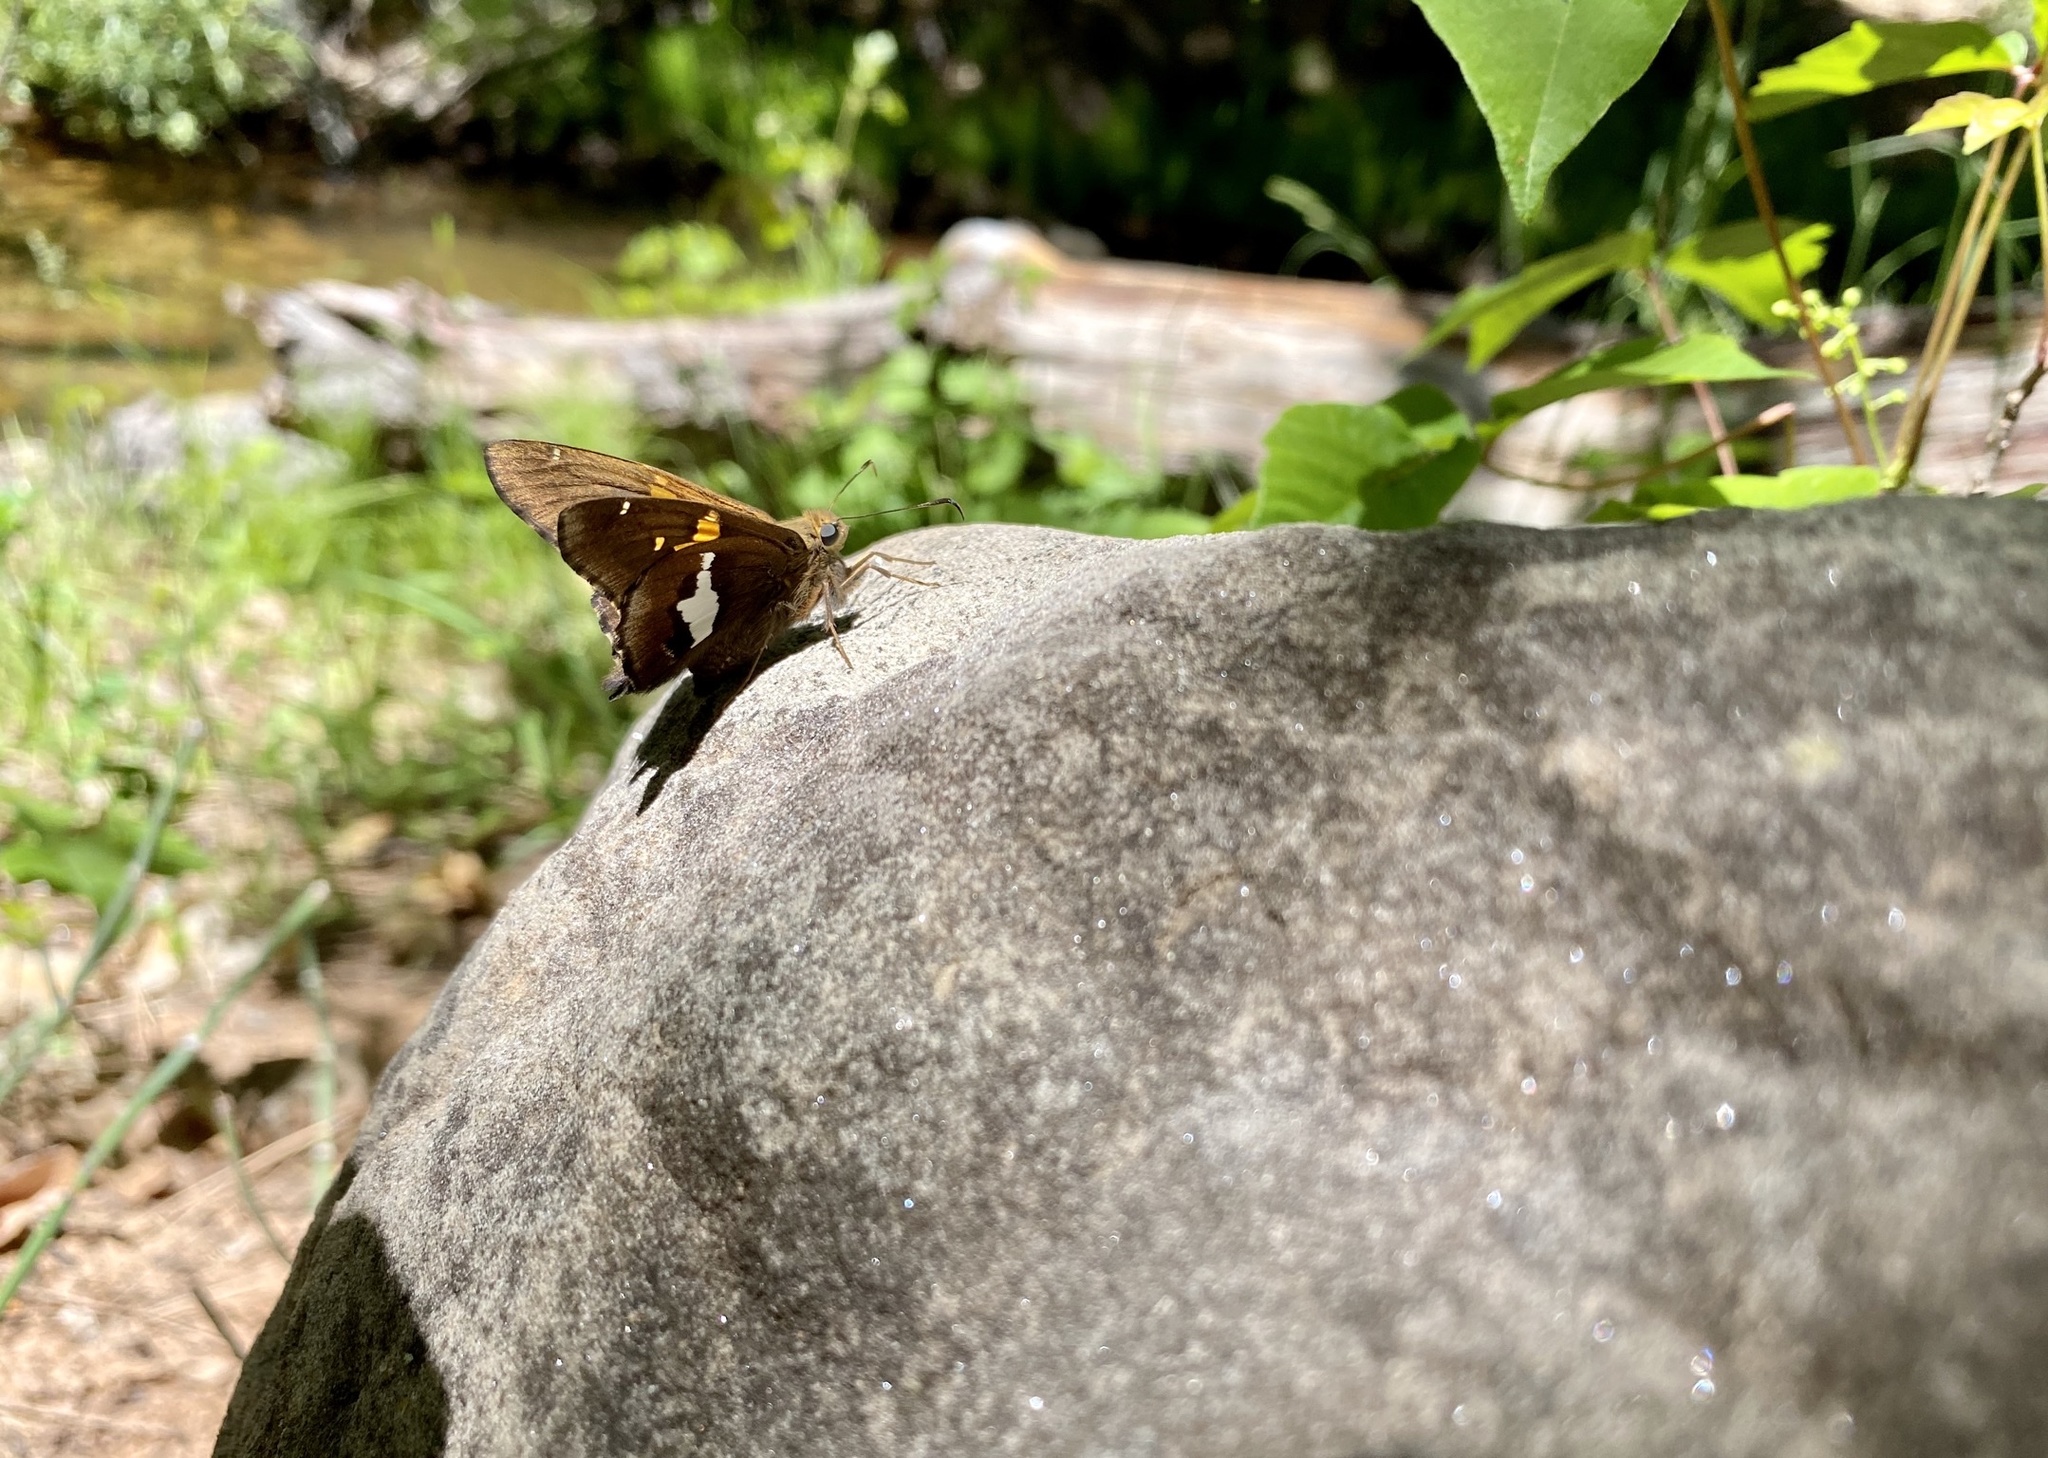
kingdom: Animalia
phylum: Arthropoda
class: Insecta
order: Lepidoptera
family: Hesperiidae
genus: Epargyreus
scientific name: Epargyreus clarus
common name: Silver-spotted skipper
